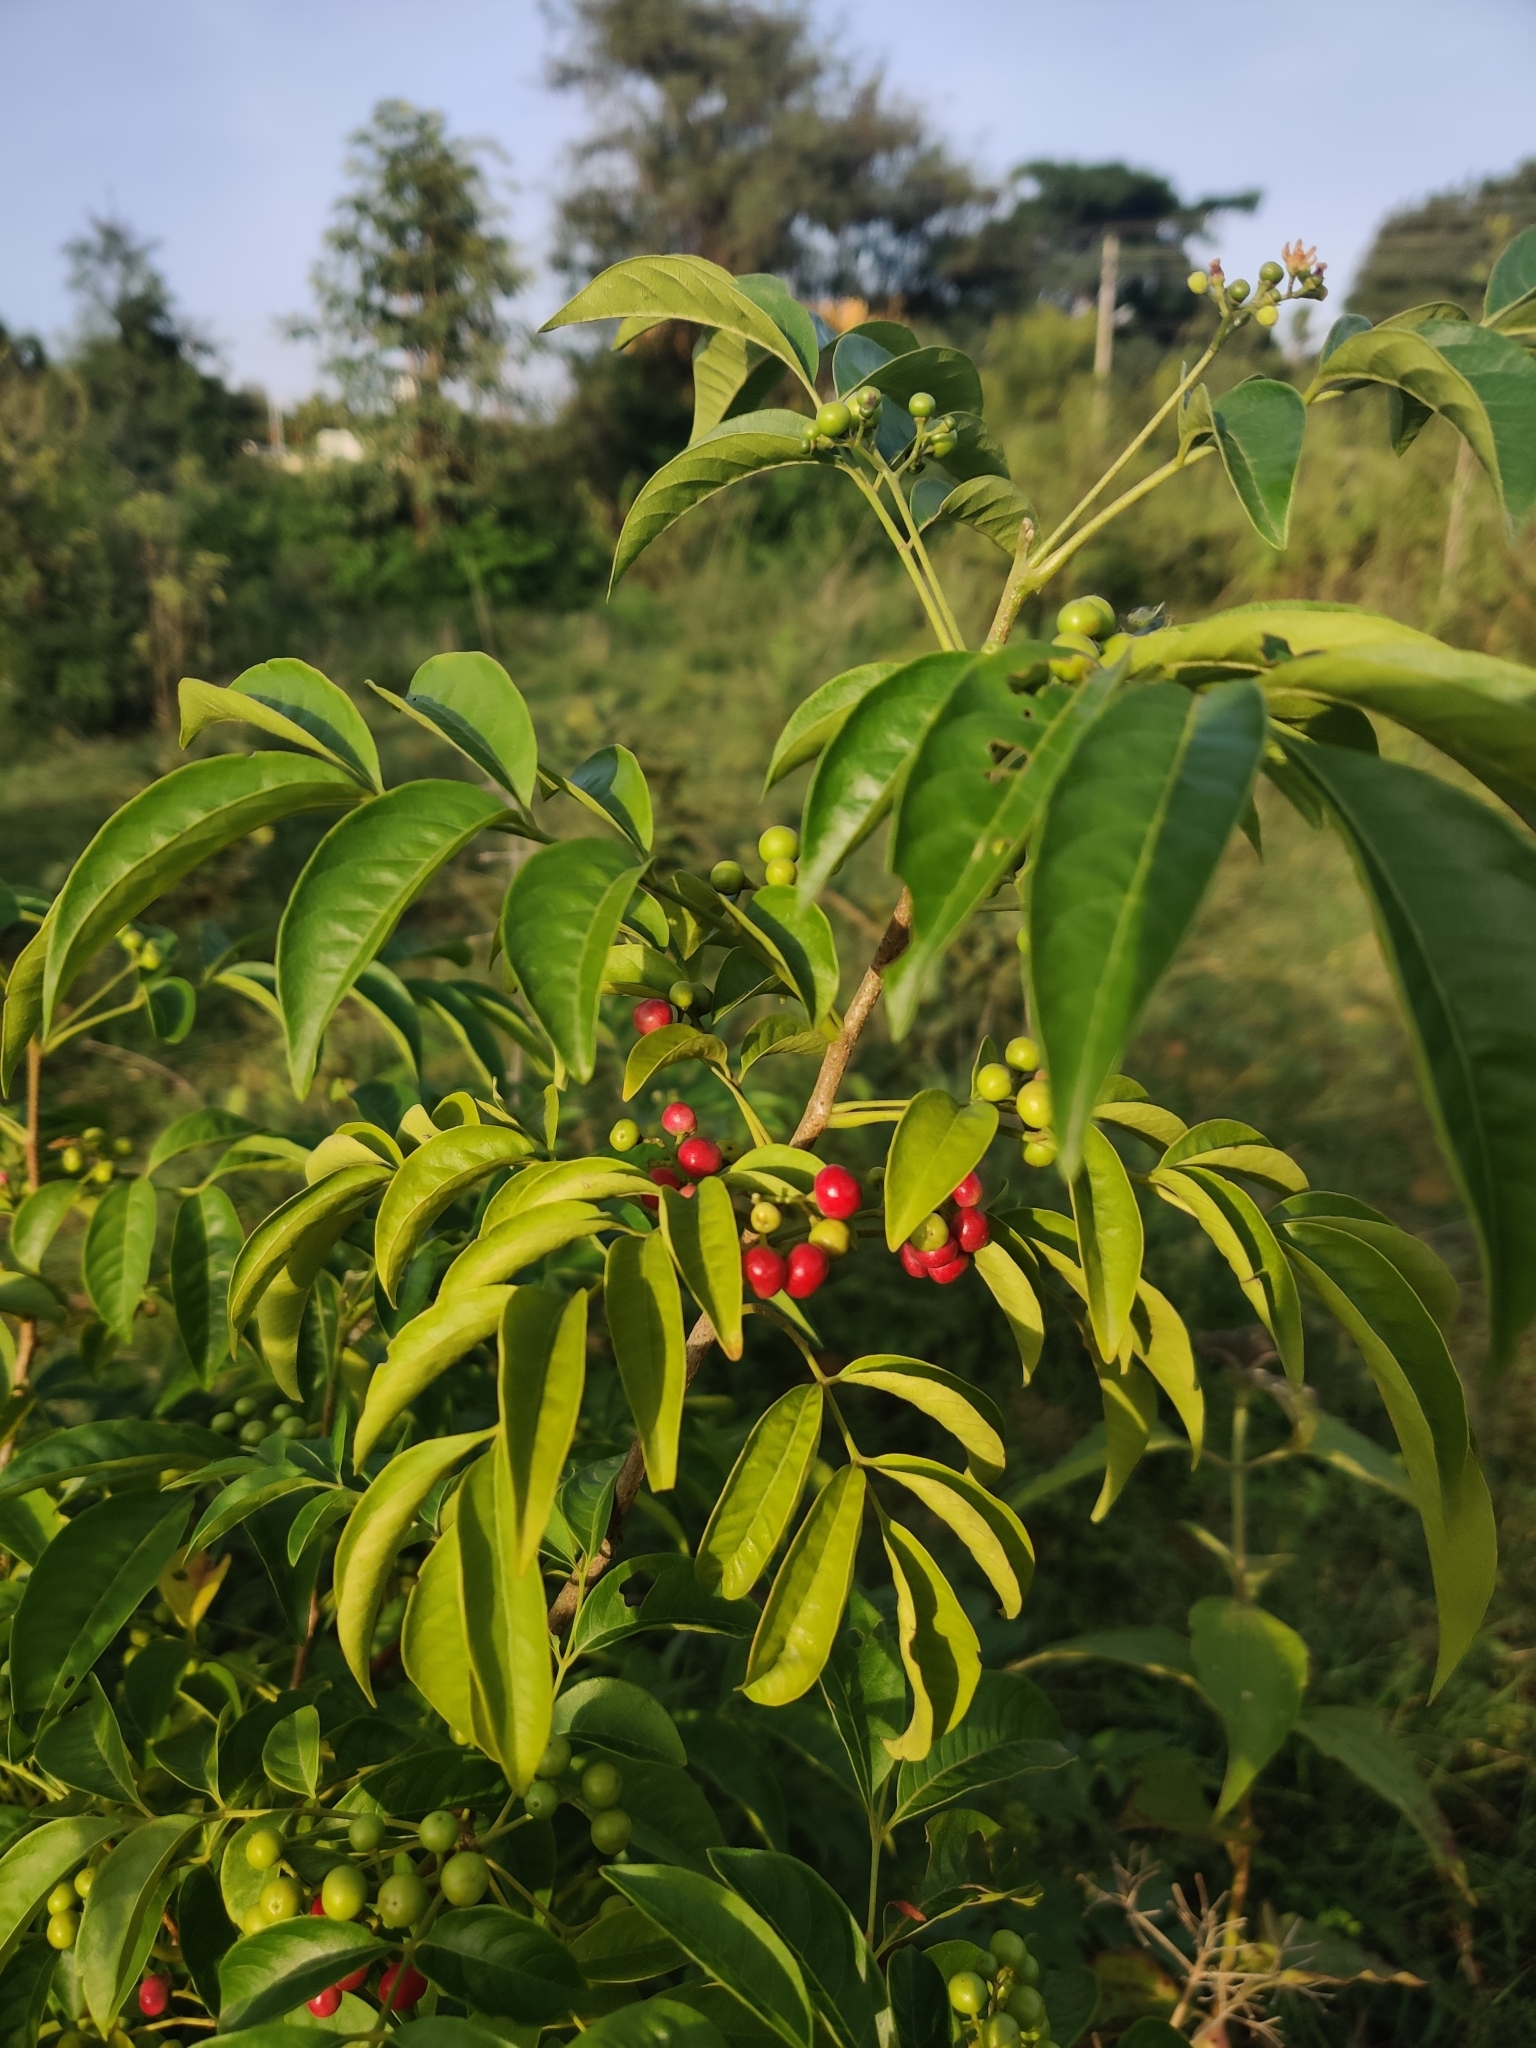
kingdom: Plantae
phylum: Tracheophyta
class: Magnoliopsida
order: Sapindales
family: Meliaceae
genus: Cipadessa
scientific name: Cipadessa baccifera
